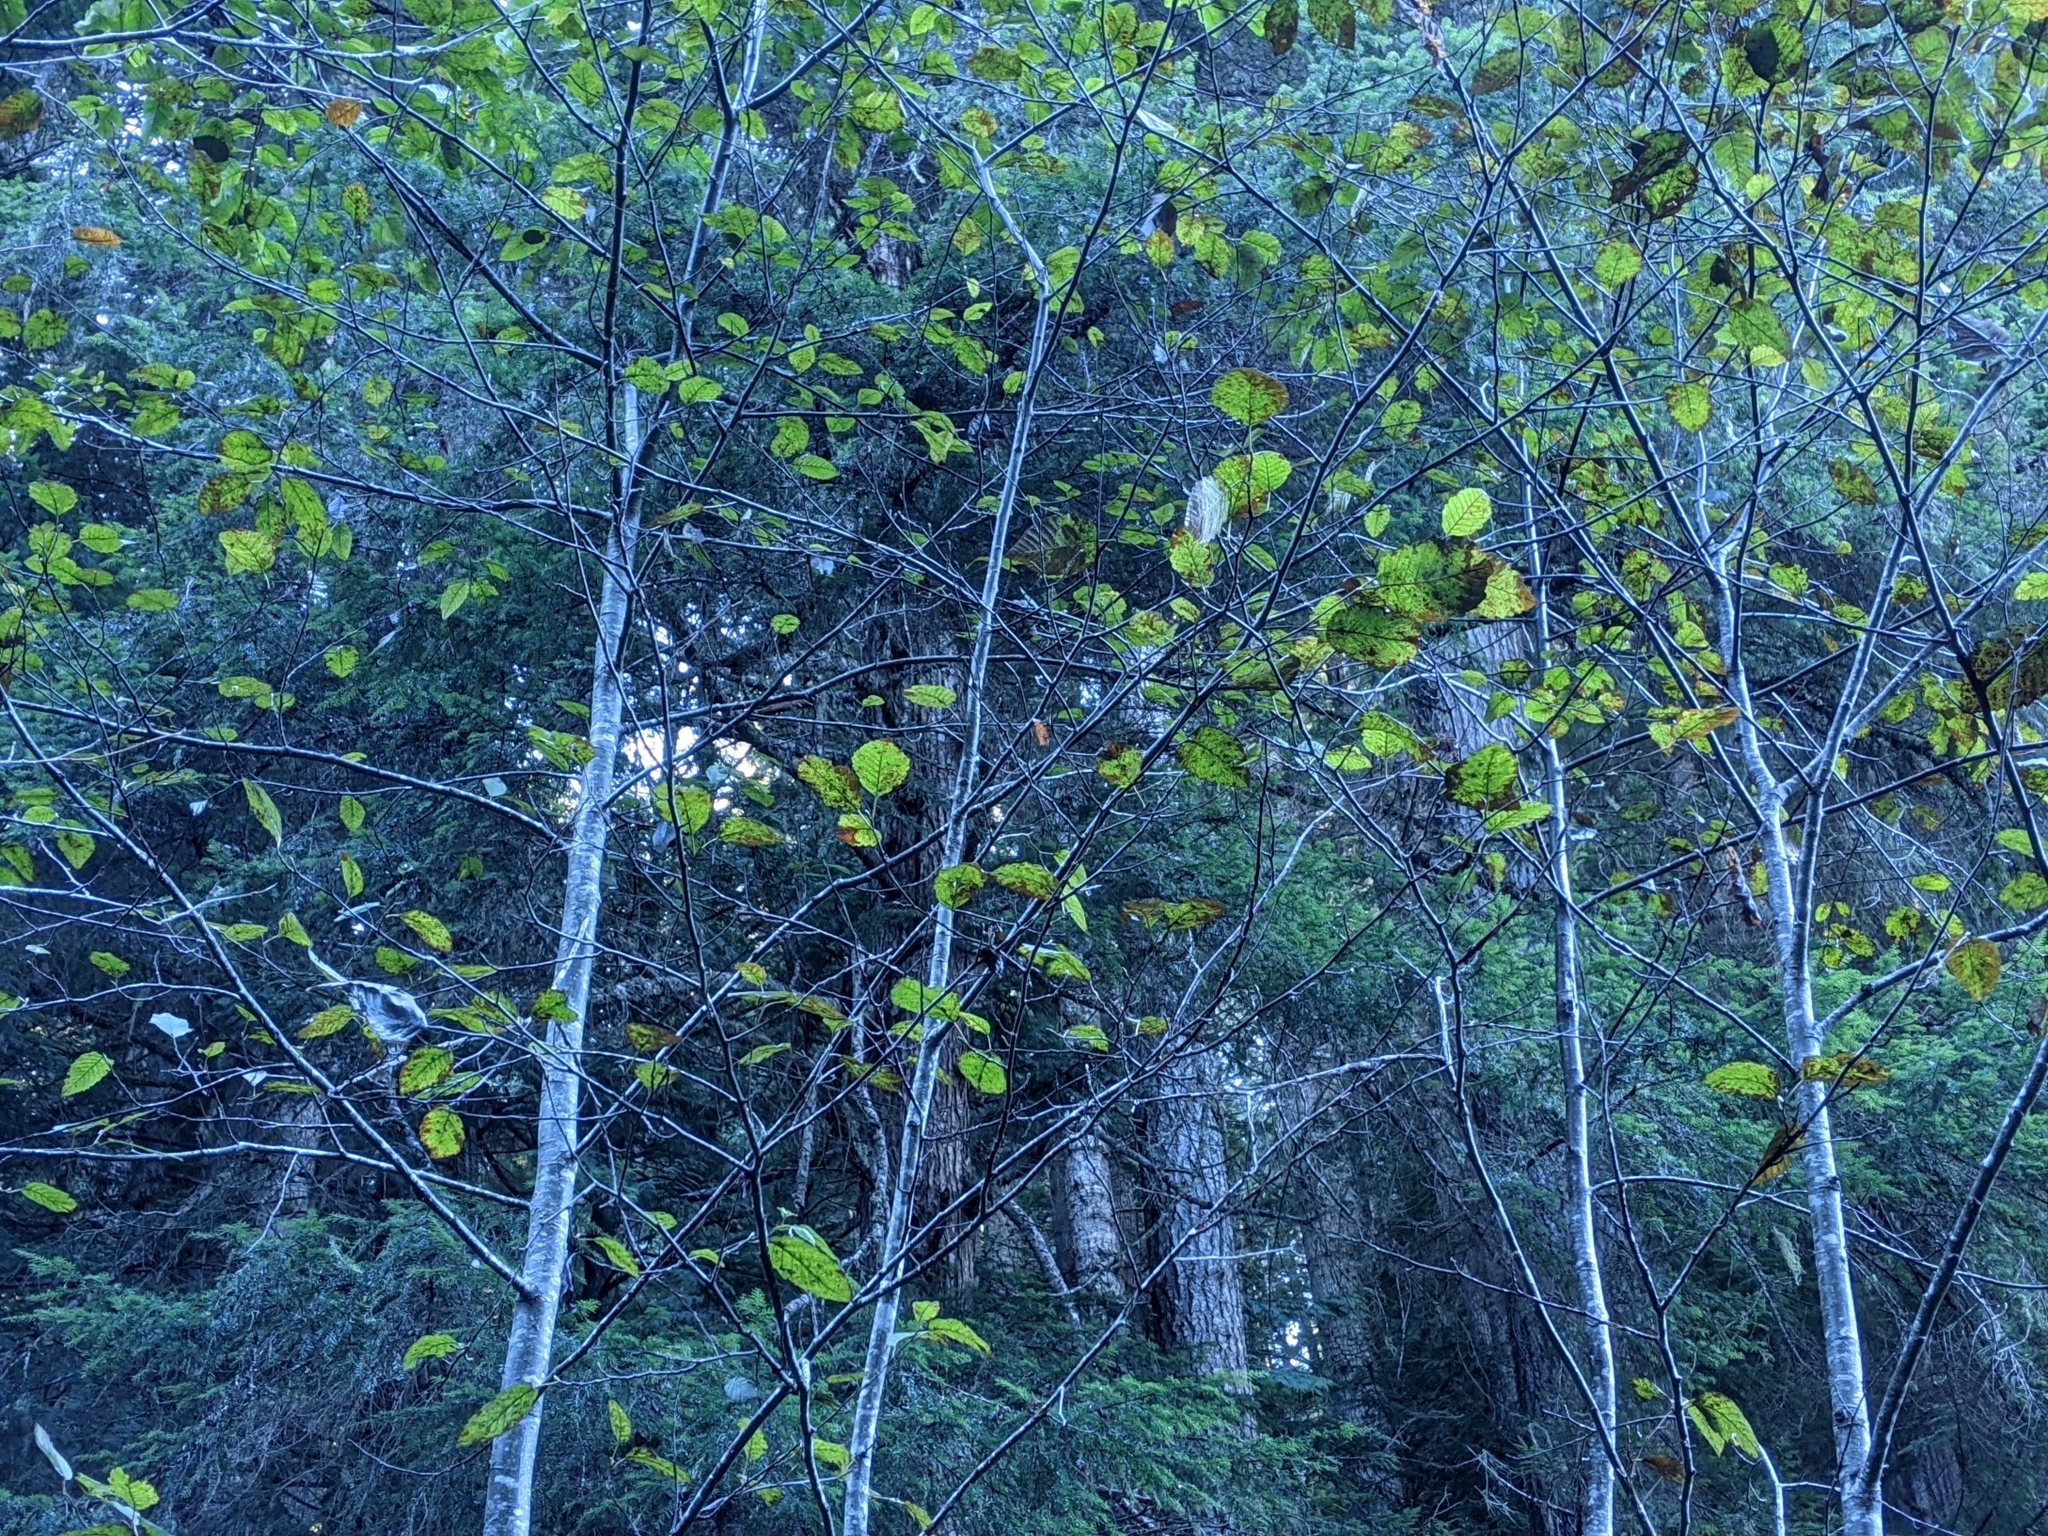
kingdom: Plantae
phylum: Tracheophyta
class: Magnoliopsida
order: Fagales
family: Betulaceae
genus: Alnus
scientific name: Alnus rubra
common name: Red alder
